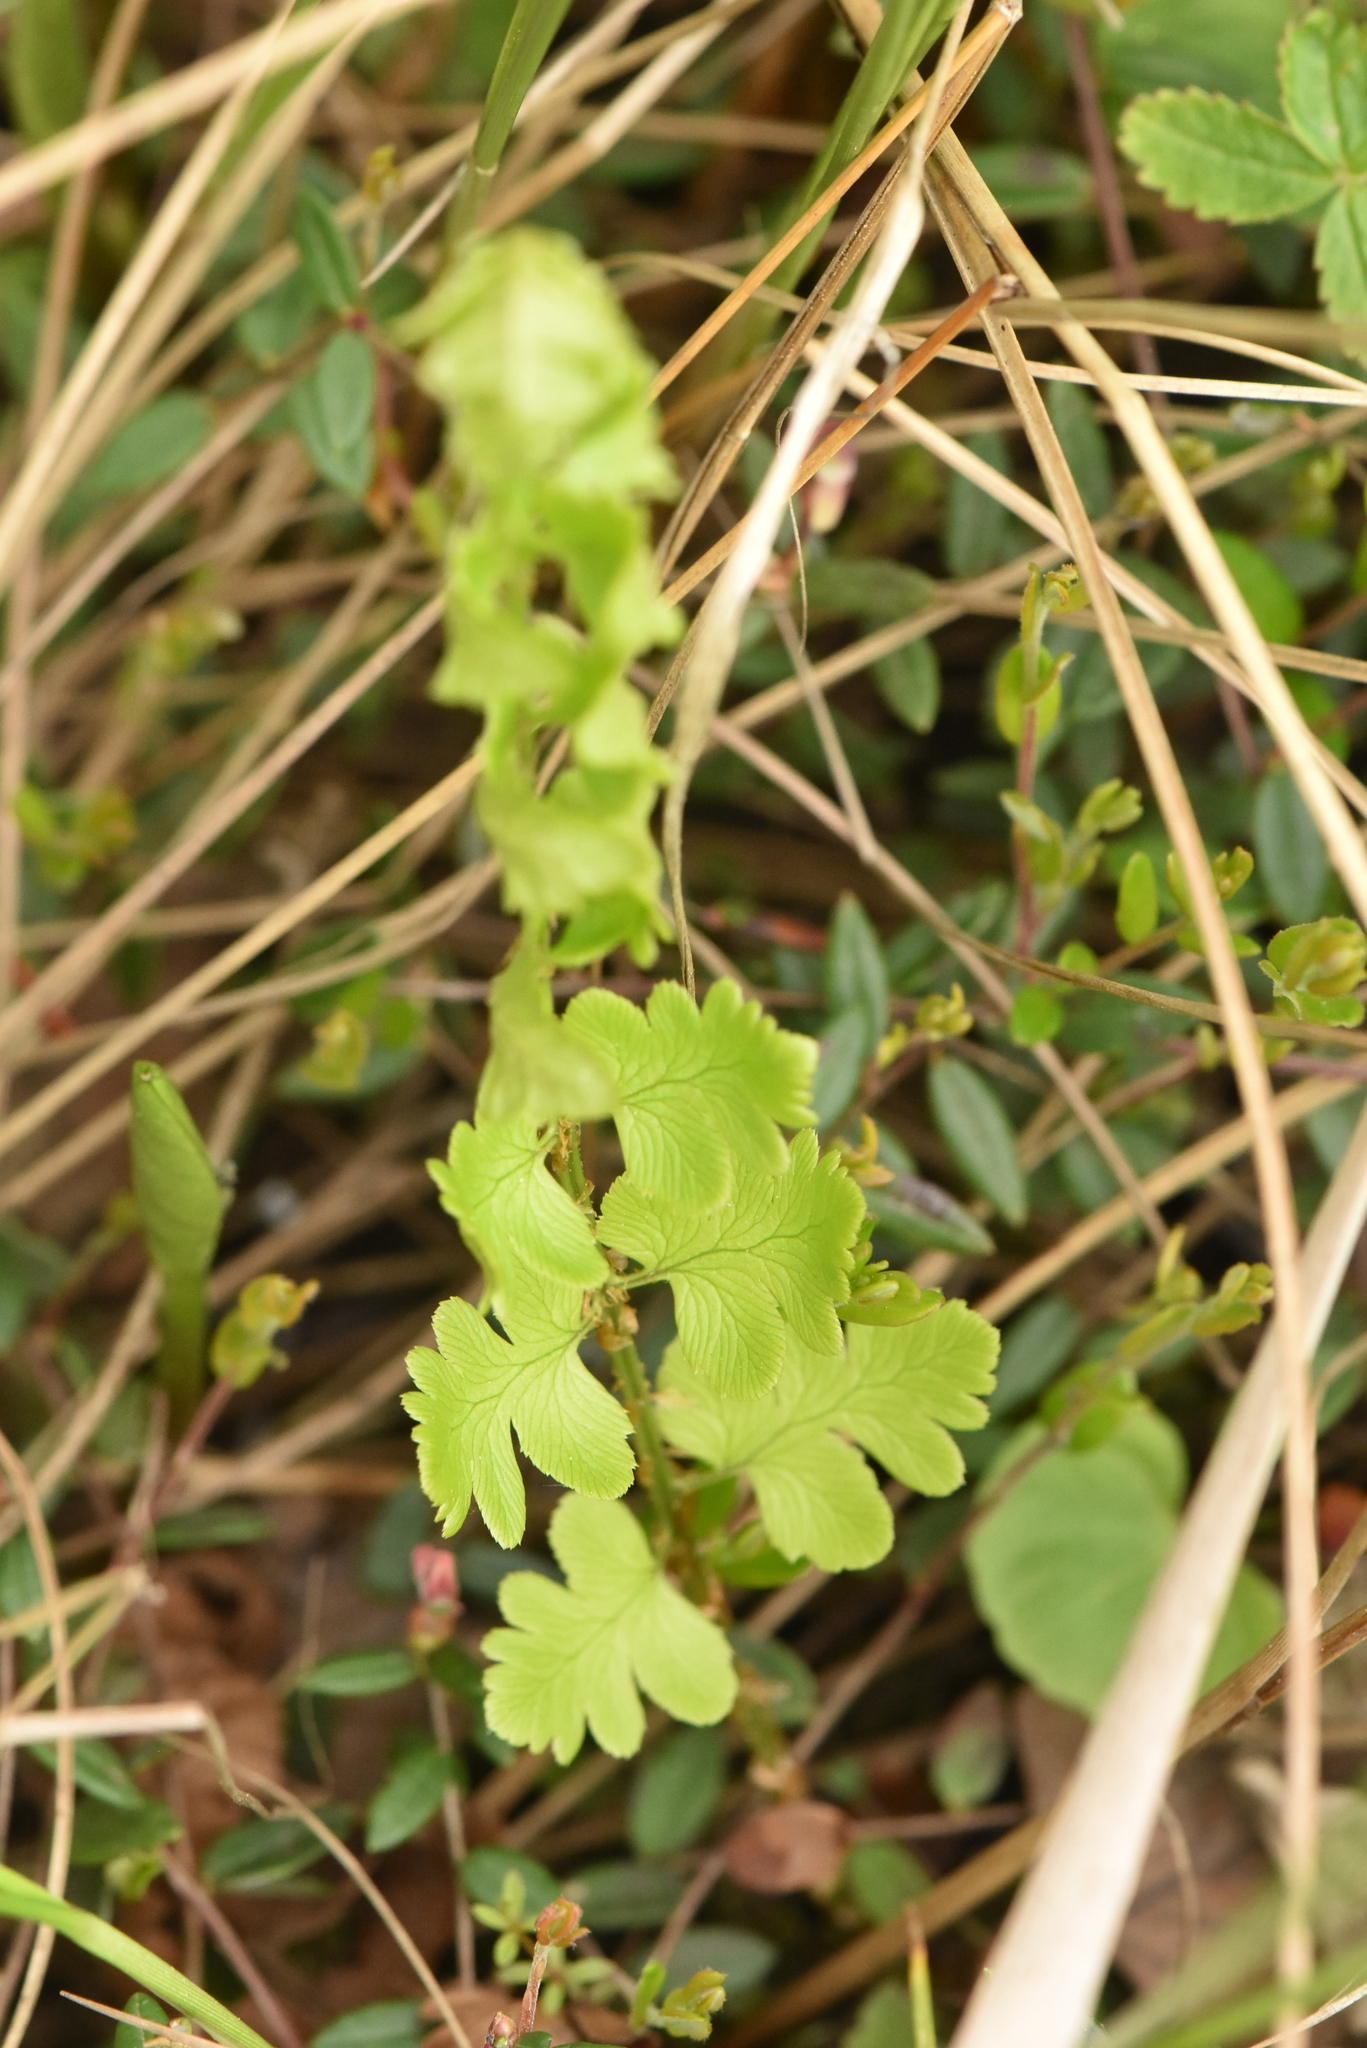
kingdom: Plantae
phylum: Tracheophyta
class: Polypodiopsida
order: Polypodiales
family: Dryopteridaceae
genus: Dryopteris
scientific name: Dryopteris cristata
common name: Crested wood fern
